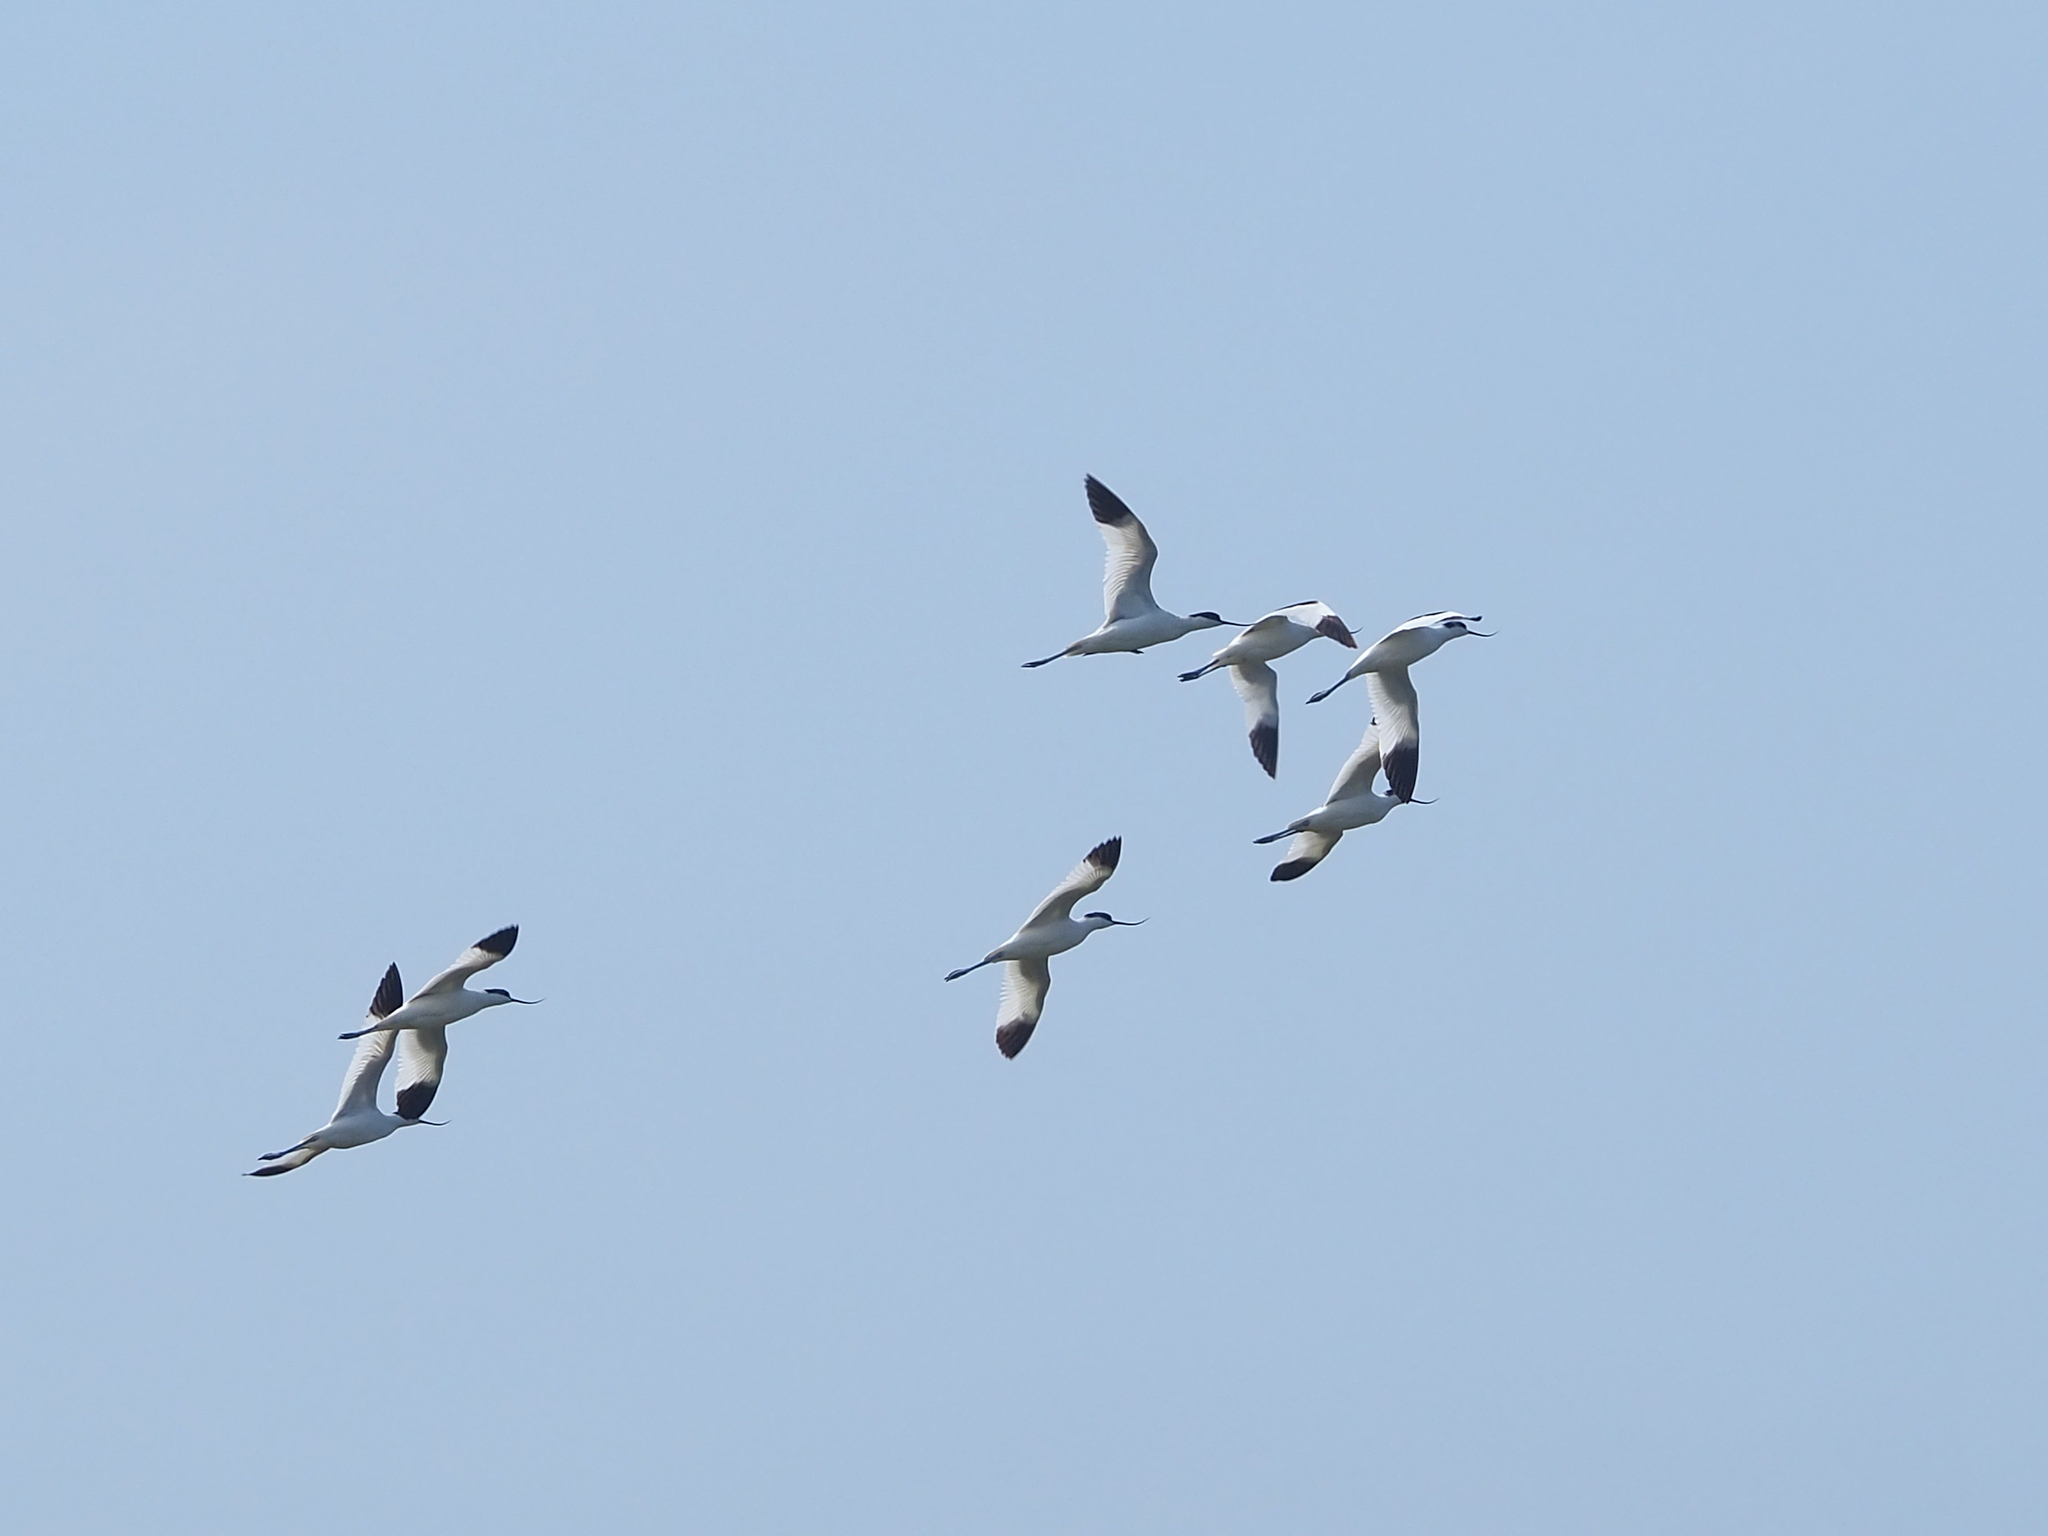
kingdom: Animalia
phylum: Chordata
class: Aves
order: Charadriiformes
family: Recurvirostridae
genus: Recurvirostra
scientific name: Recurvirostra avosetta
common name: Pied avocet
